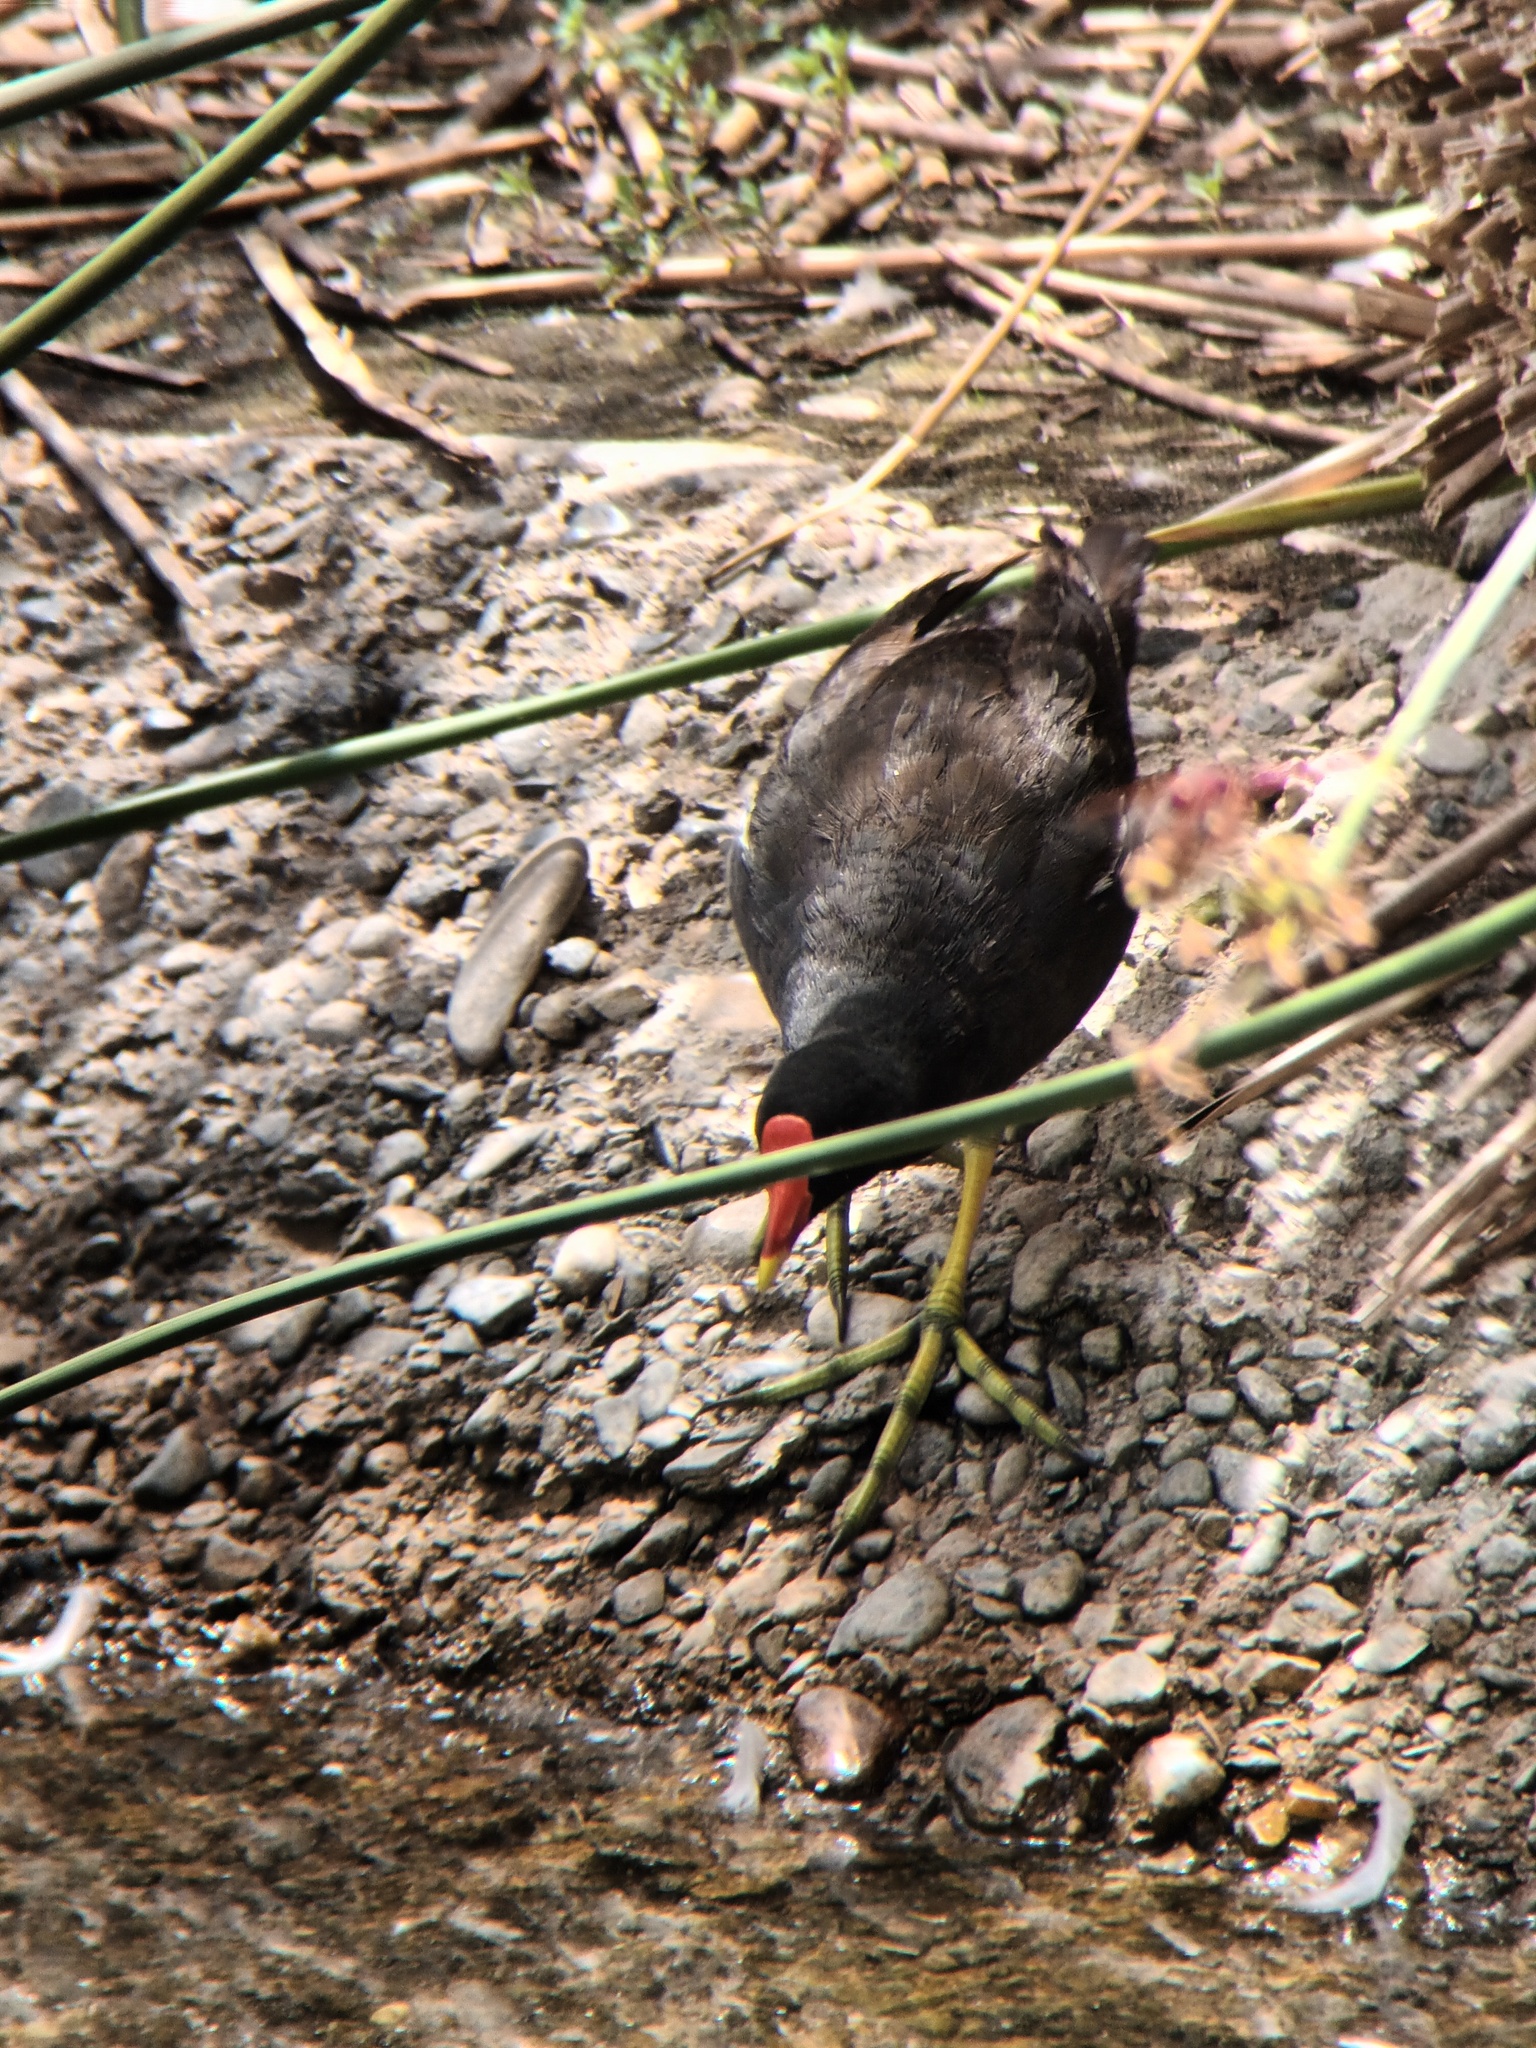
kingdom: Animalia
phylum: Chordata
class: Aves
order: Gruiformes
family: Rallidae
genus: Gallinula
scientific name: Gallinula chloropus
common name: Common moorhen
